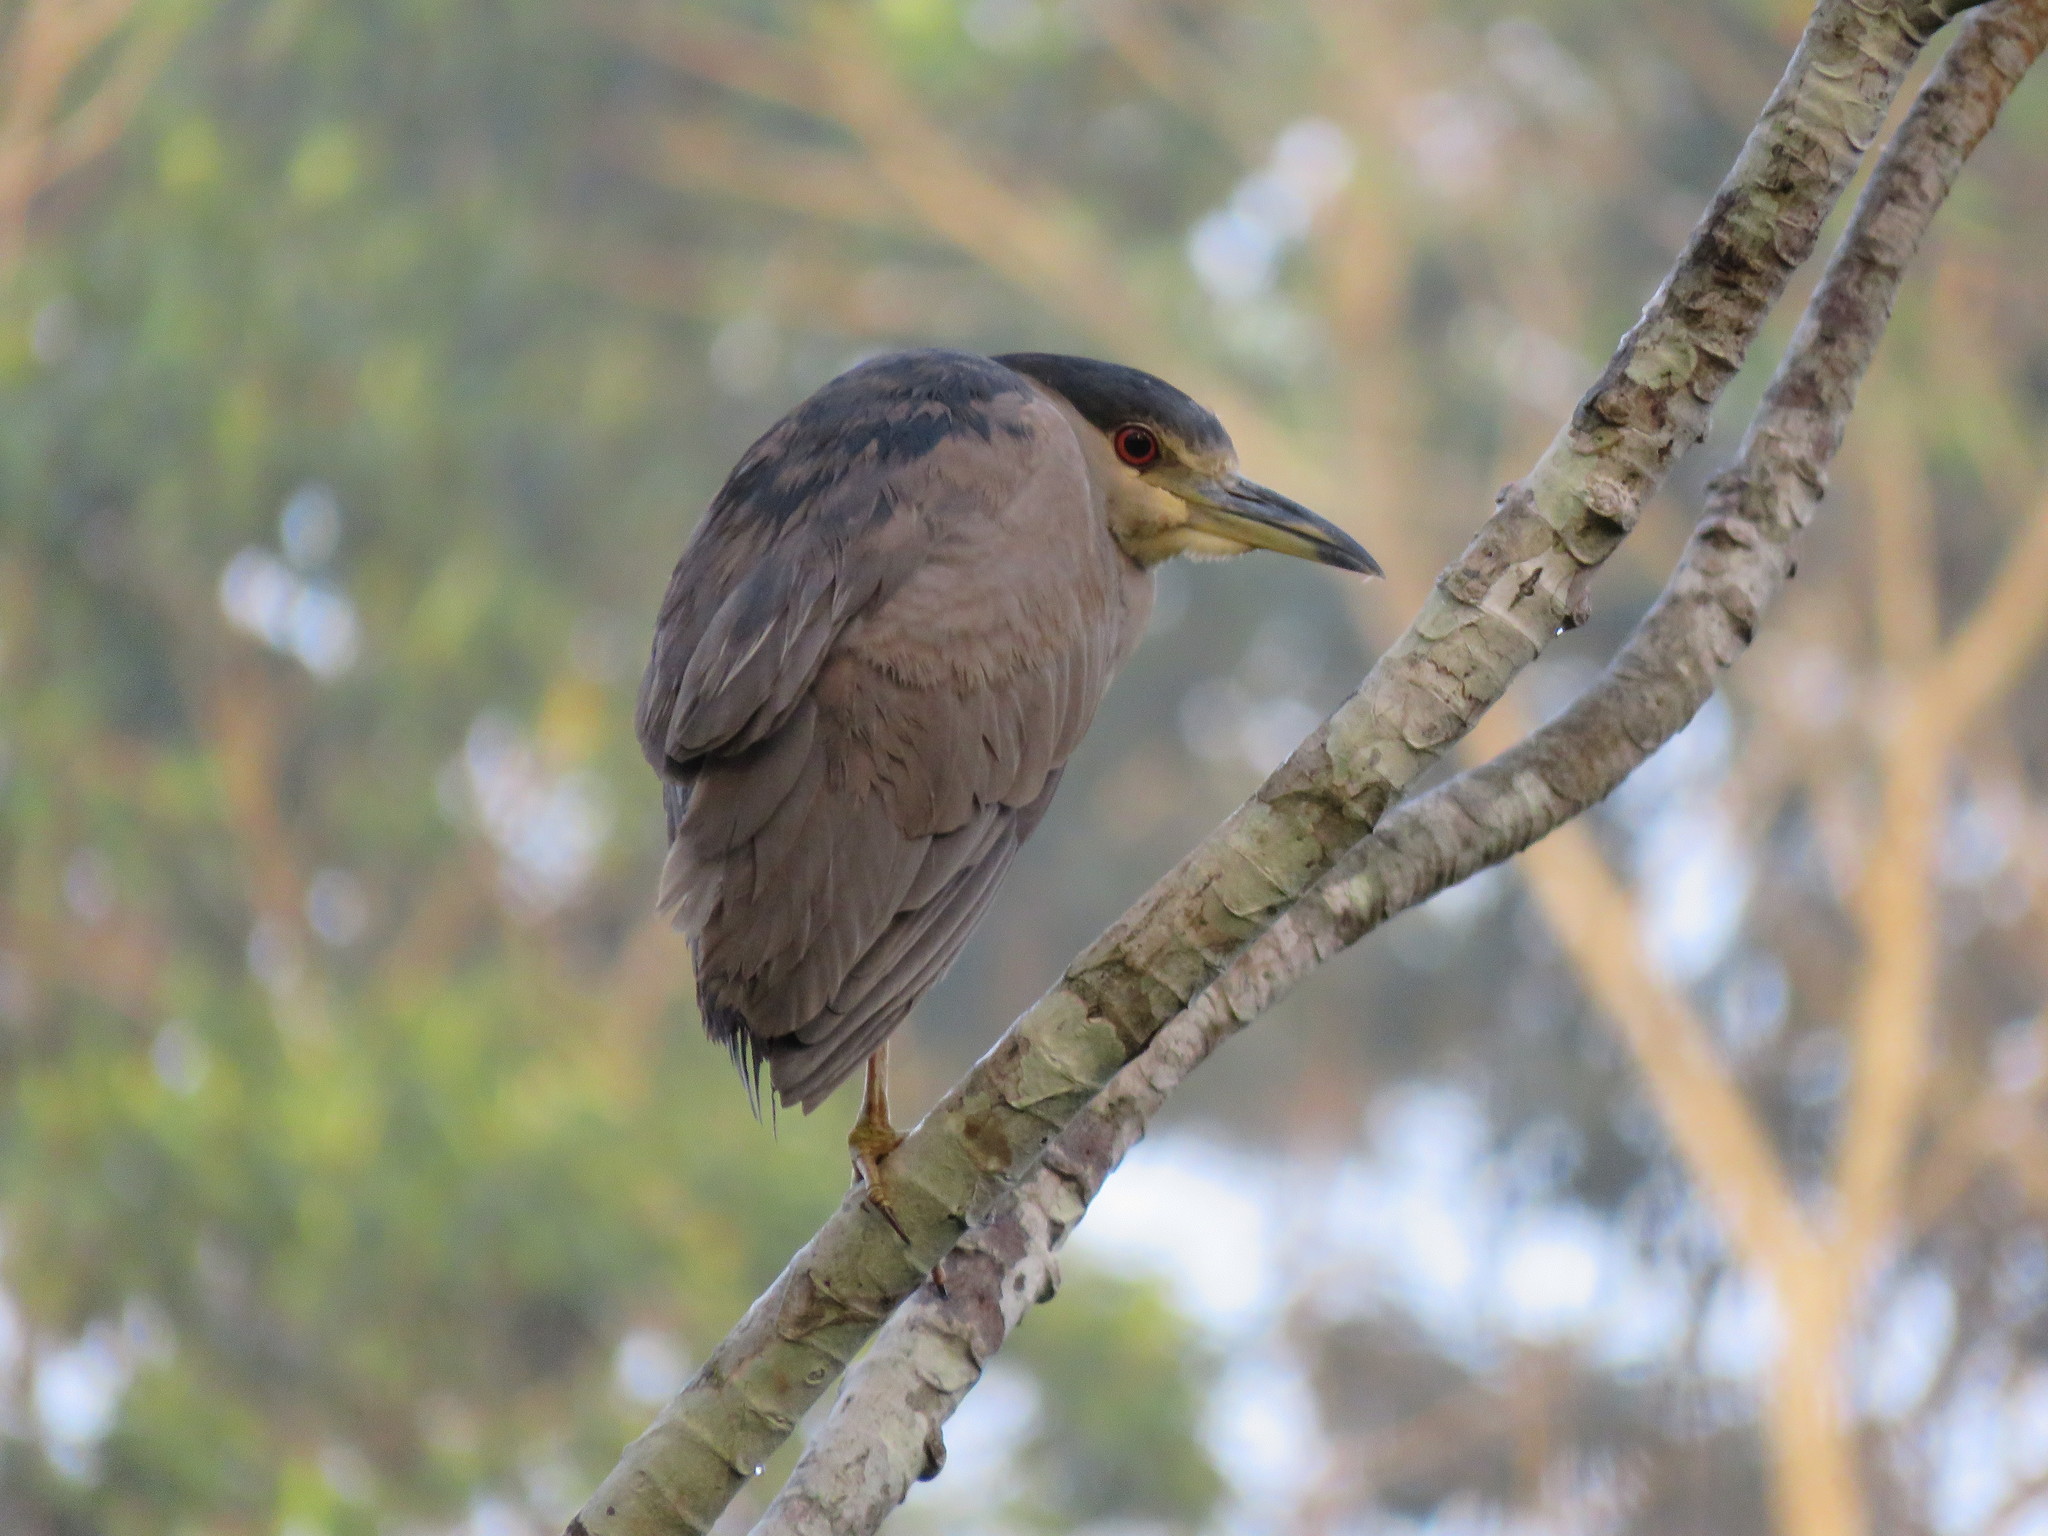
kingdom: Animalia
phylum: Chordata
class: Aves
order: Pelecaniformes
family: Ardeidae
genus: Nycticorax
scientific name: Nycticorax nycticorax
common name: Black-crowned night heron
